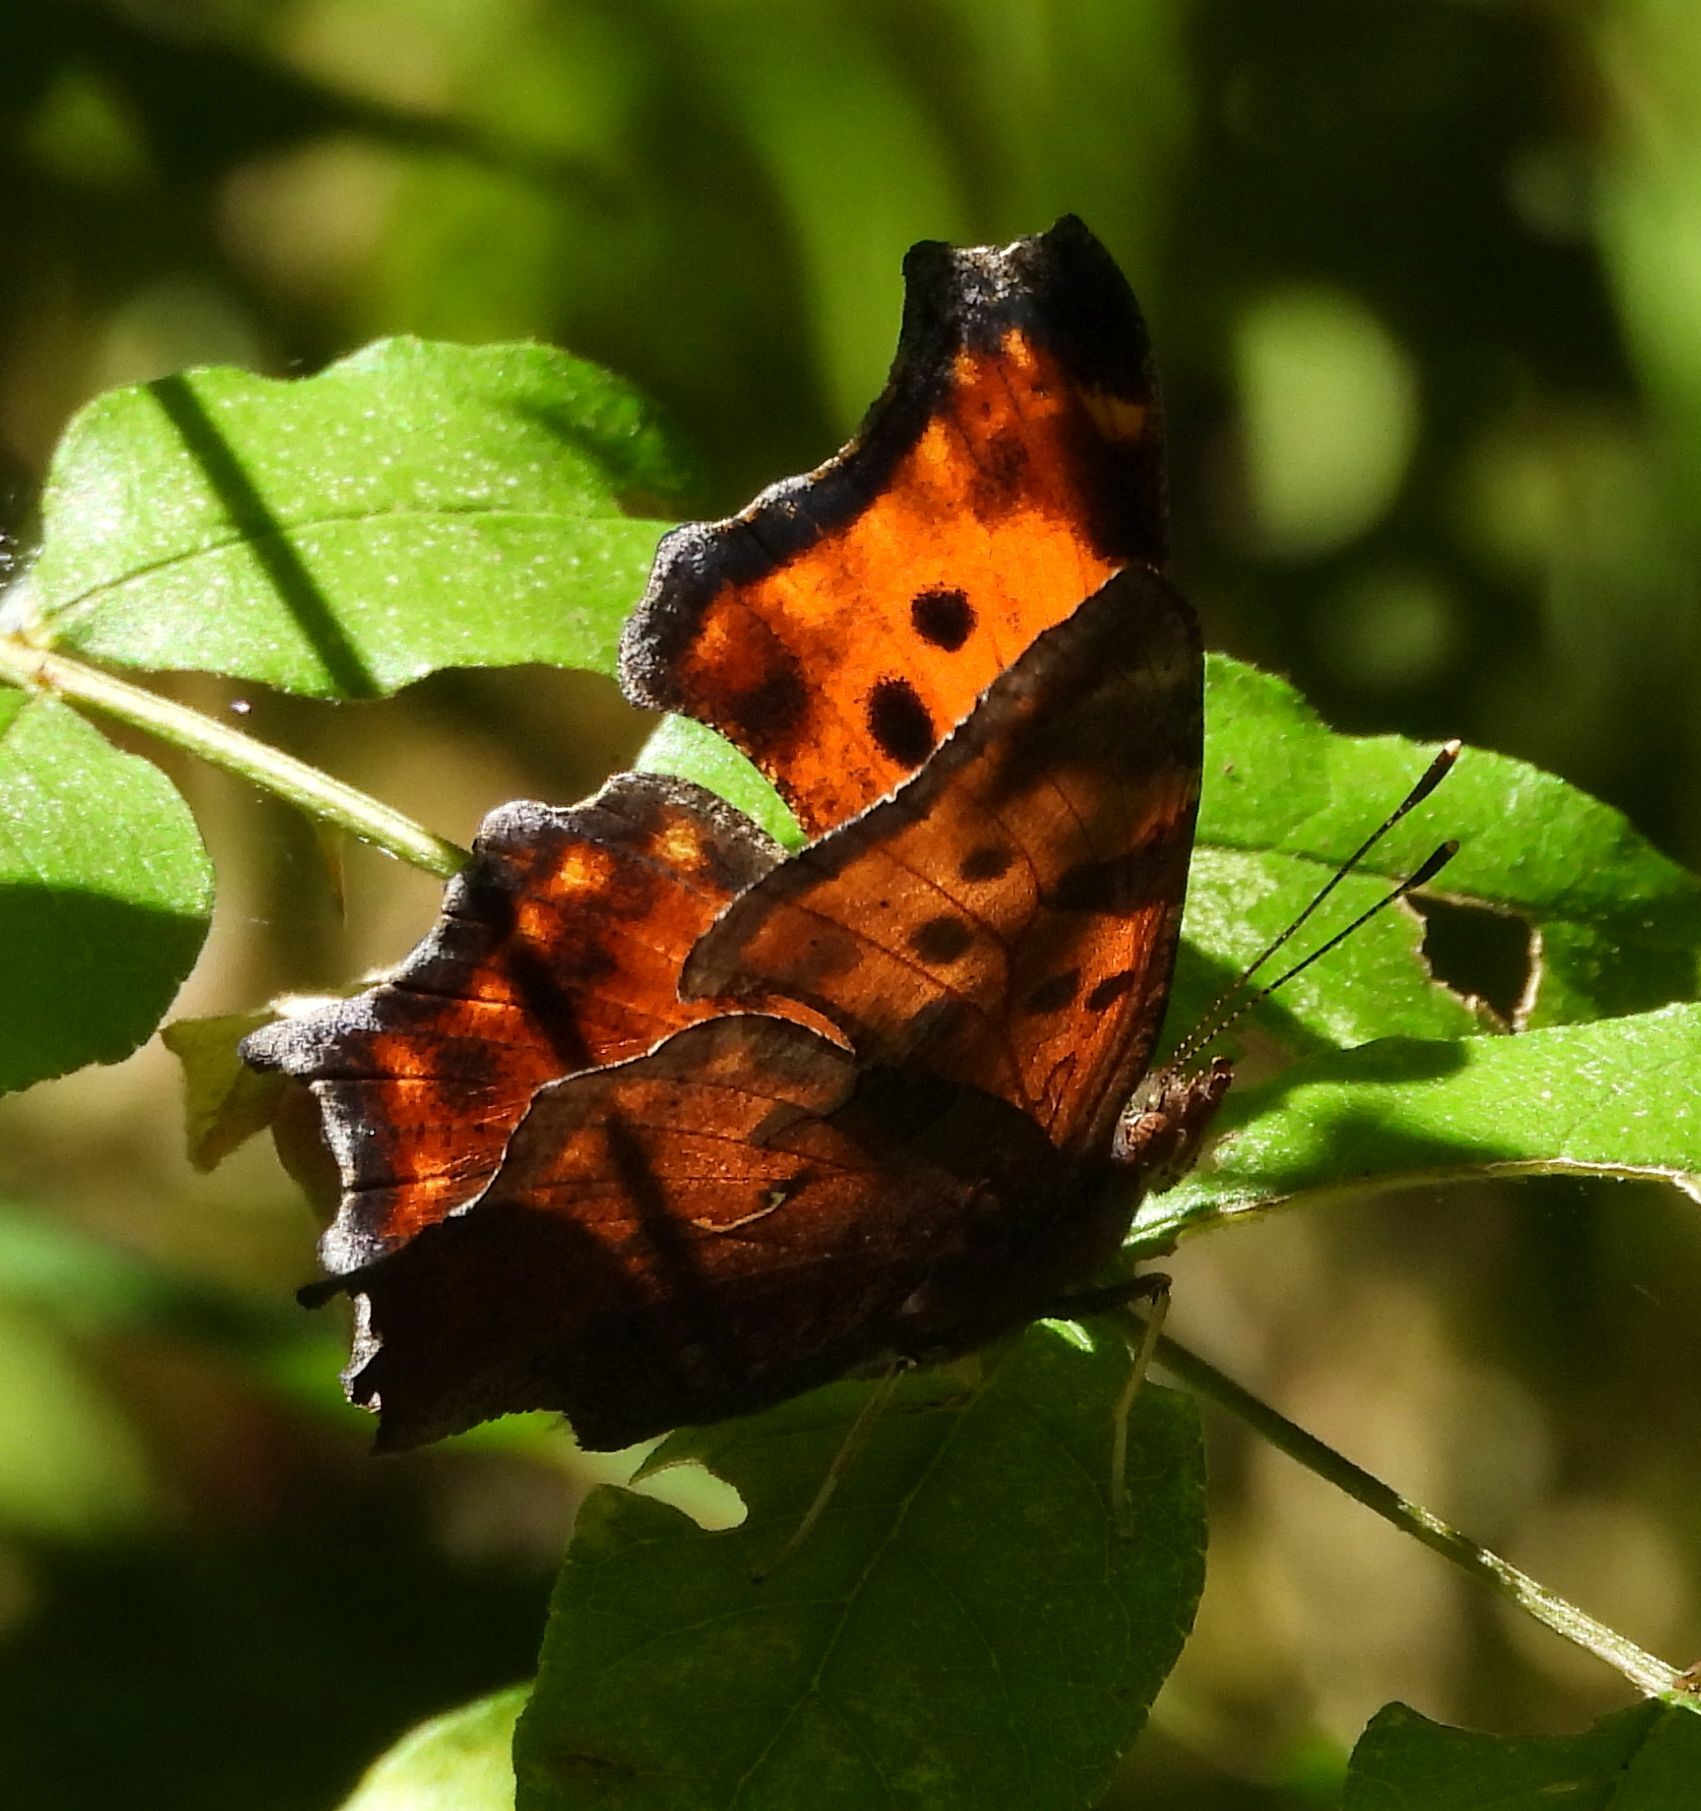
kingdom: Animalia
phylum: Arthropoda
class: Insecta
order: Lepidoptera
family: Nymphalidae
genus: Polygonia
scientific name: Polygonia comma
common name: Eastern comma
